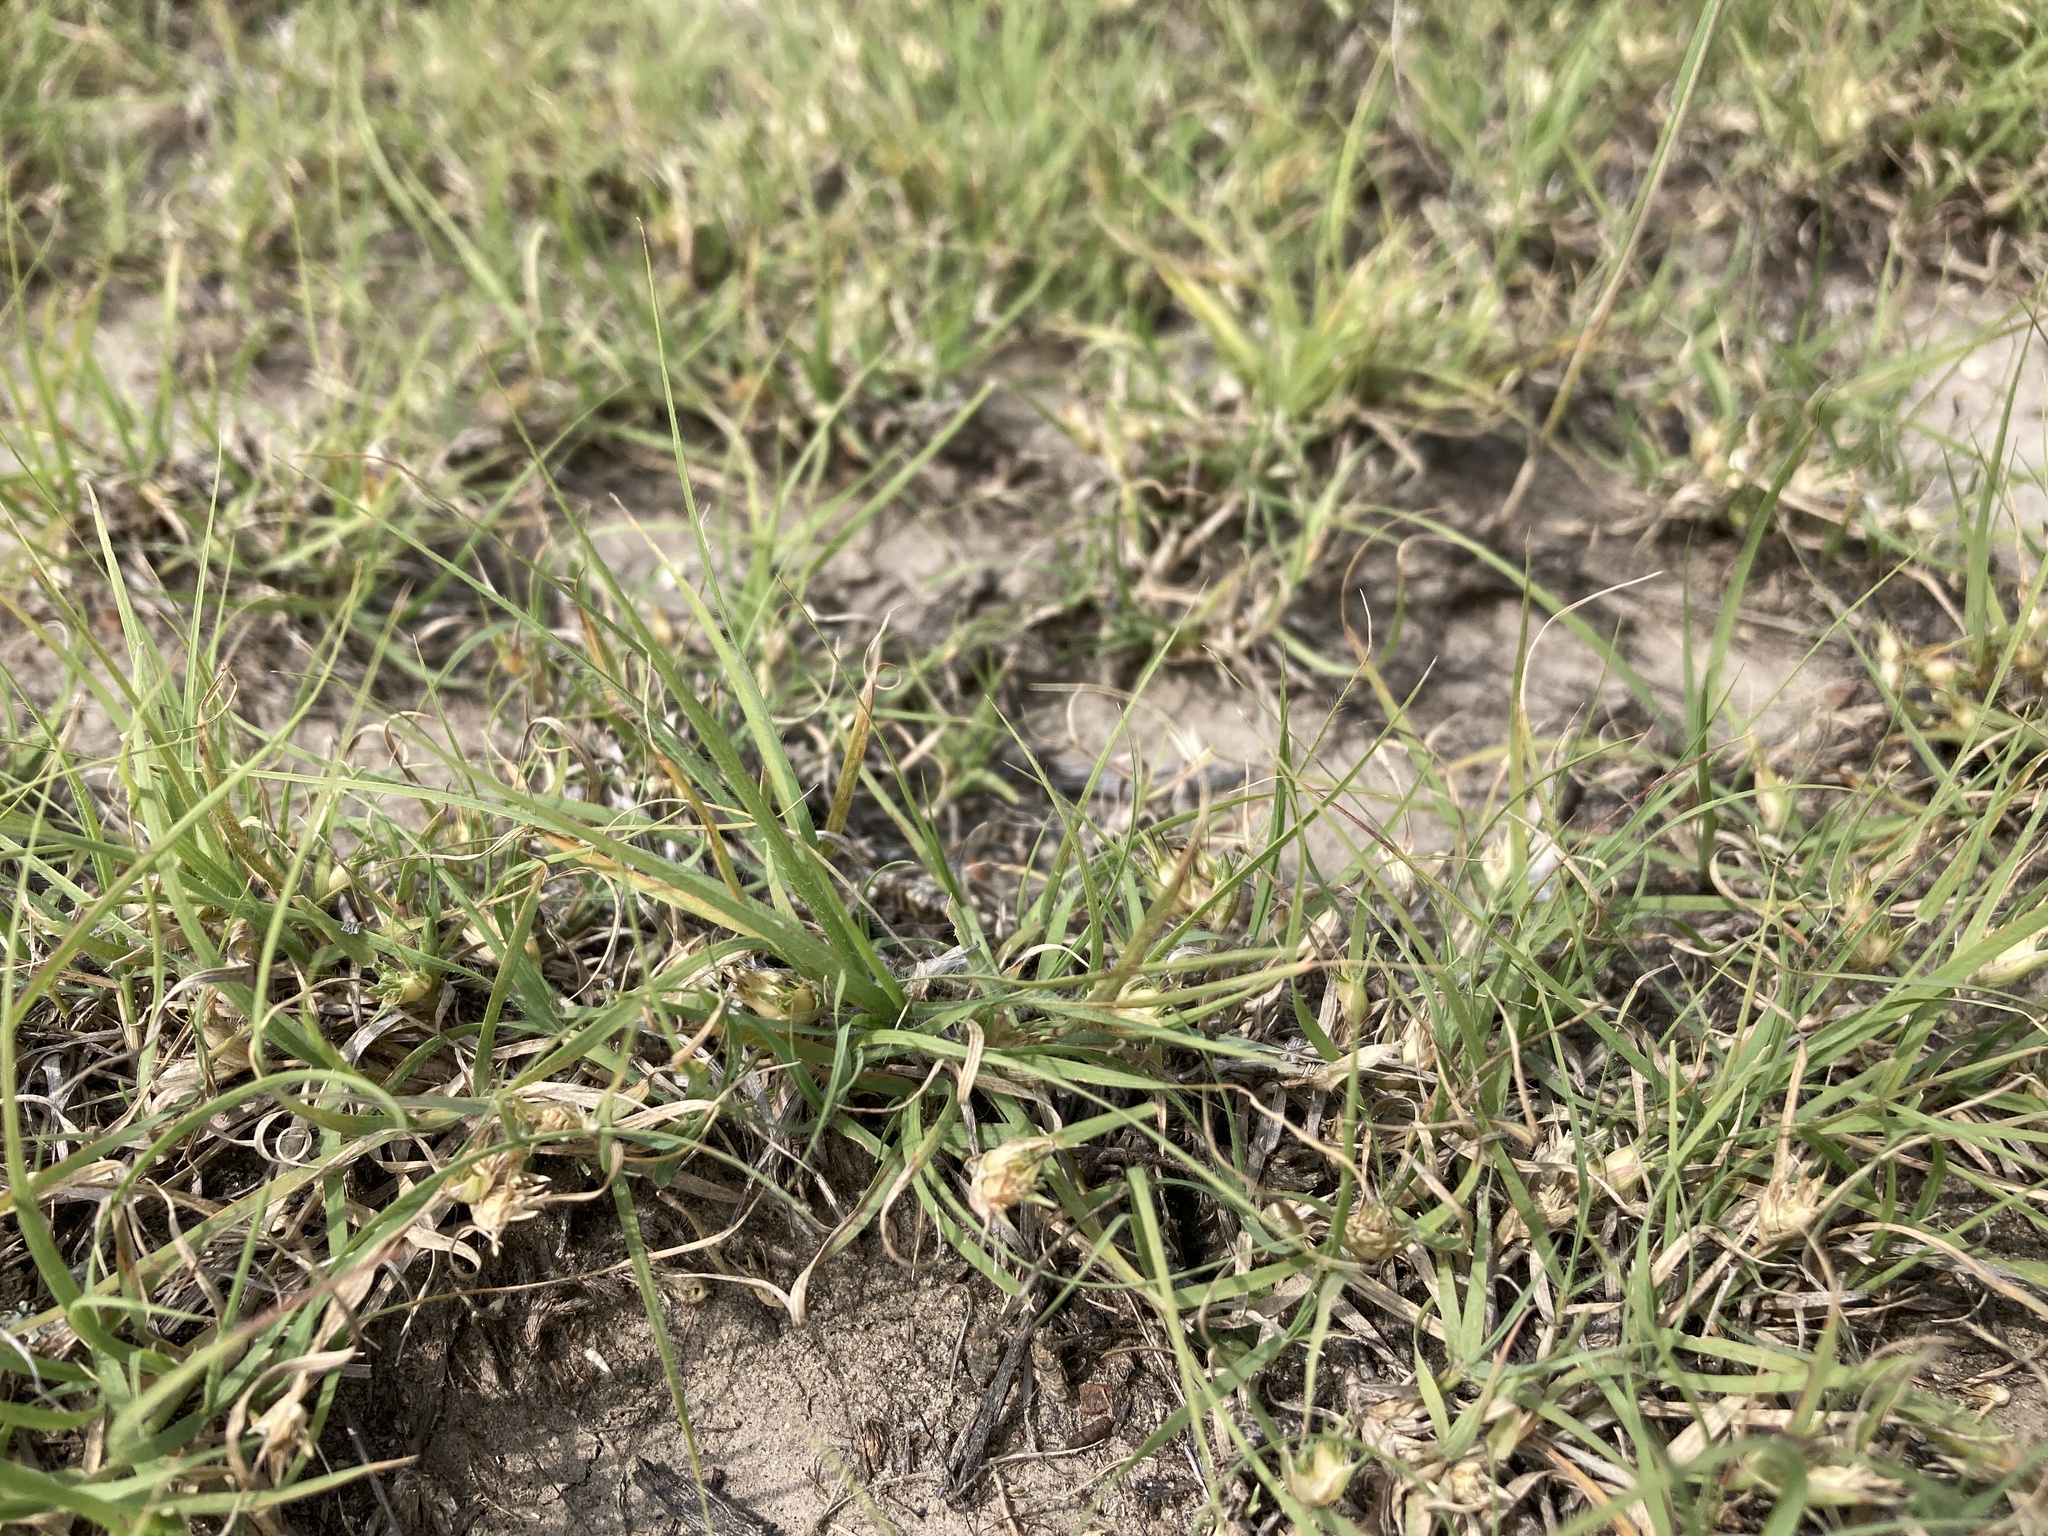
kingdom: Plantae
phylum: Tracheophyta
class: Liliopsida
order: Poales
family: Poaceae
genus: Bouteloua
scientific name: Bouteloua dactyloides
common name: Buffalo grass
